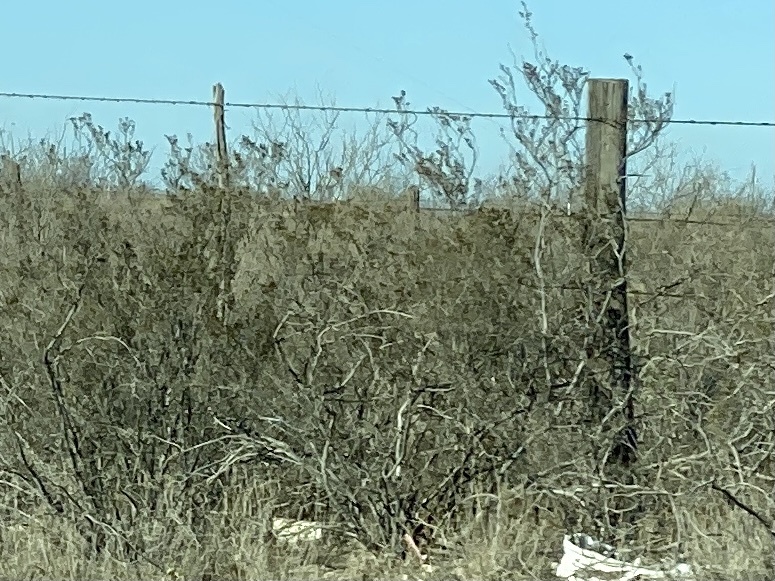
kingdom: Plantae
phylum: Tracheophyta
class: Magnoliopsida
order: Zygophyllales
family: Zygophyllaceae
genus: Larrea
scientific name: Larrea tridentata
